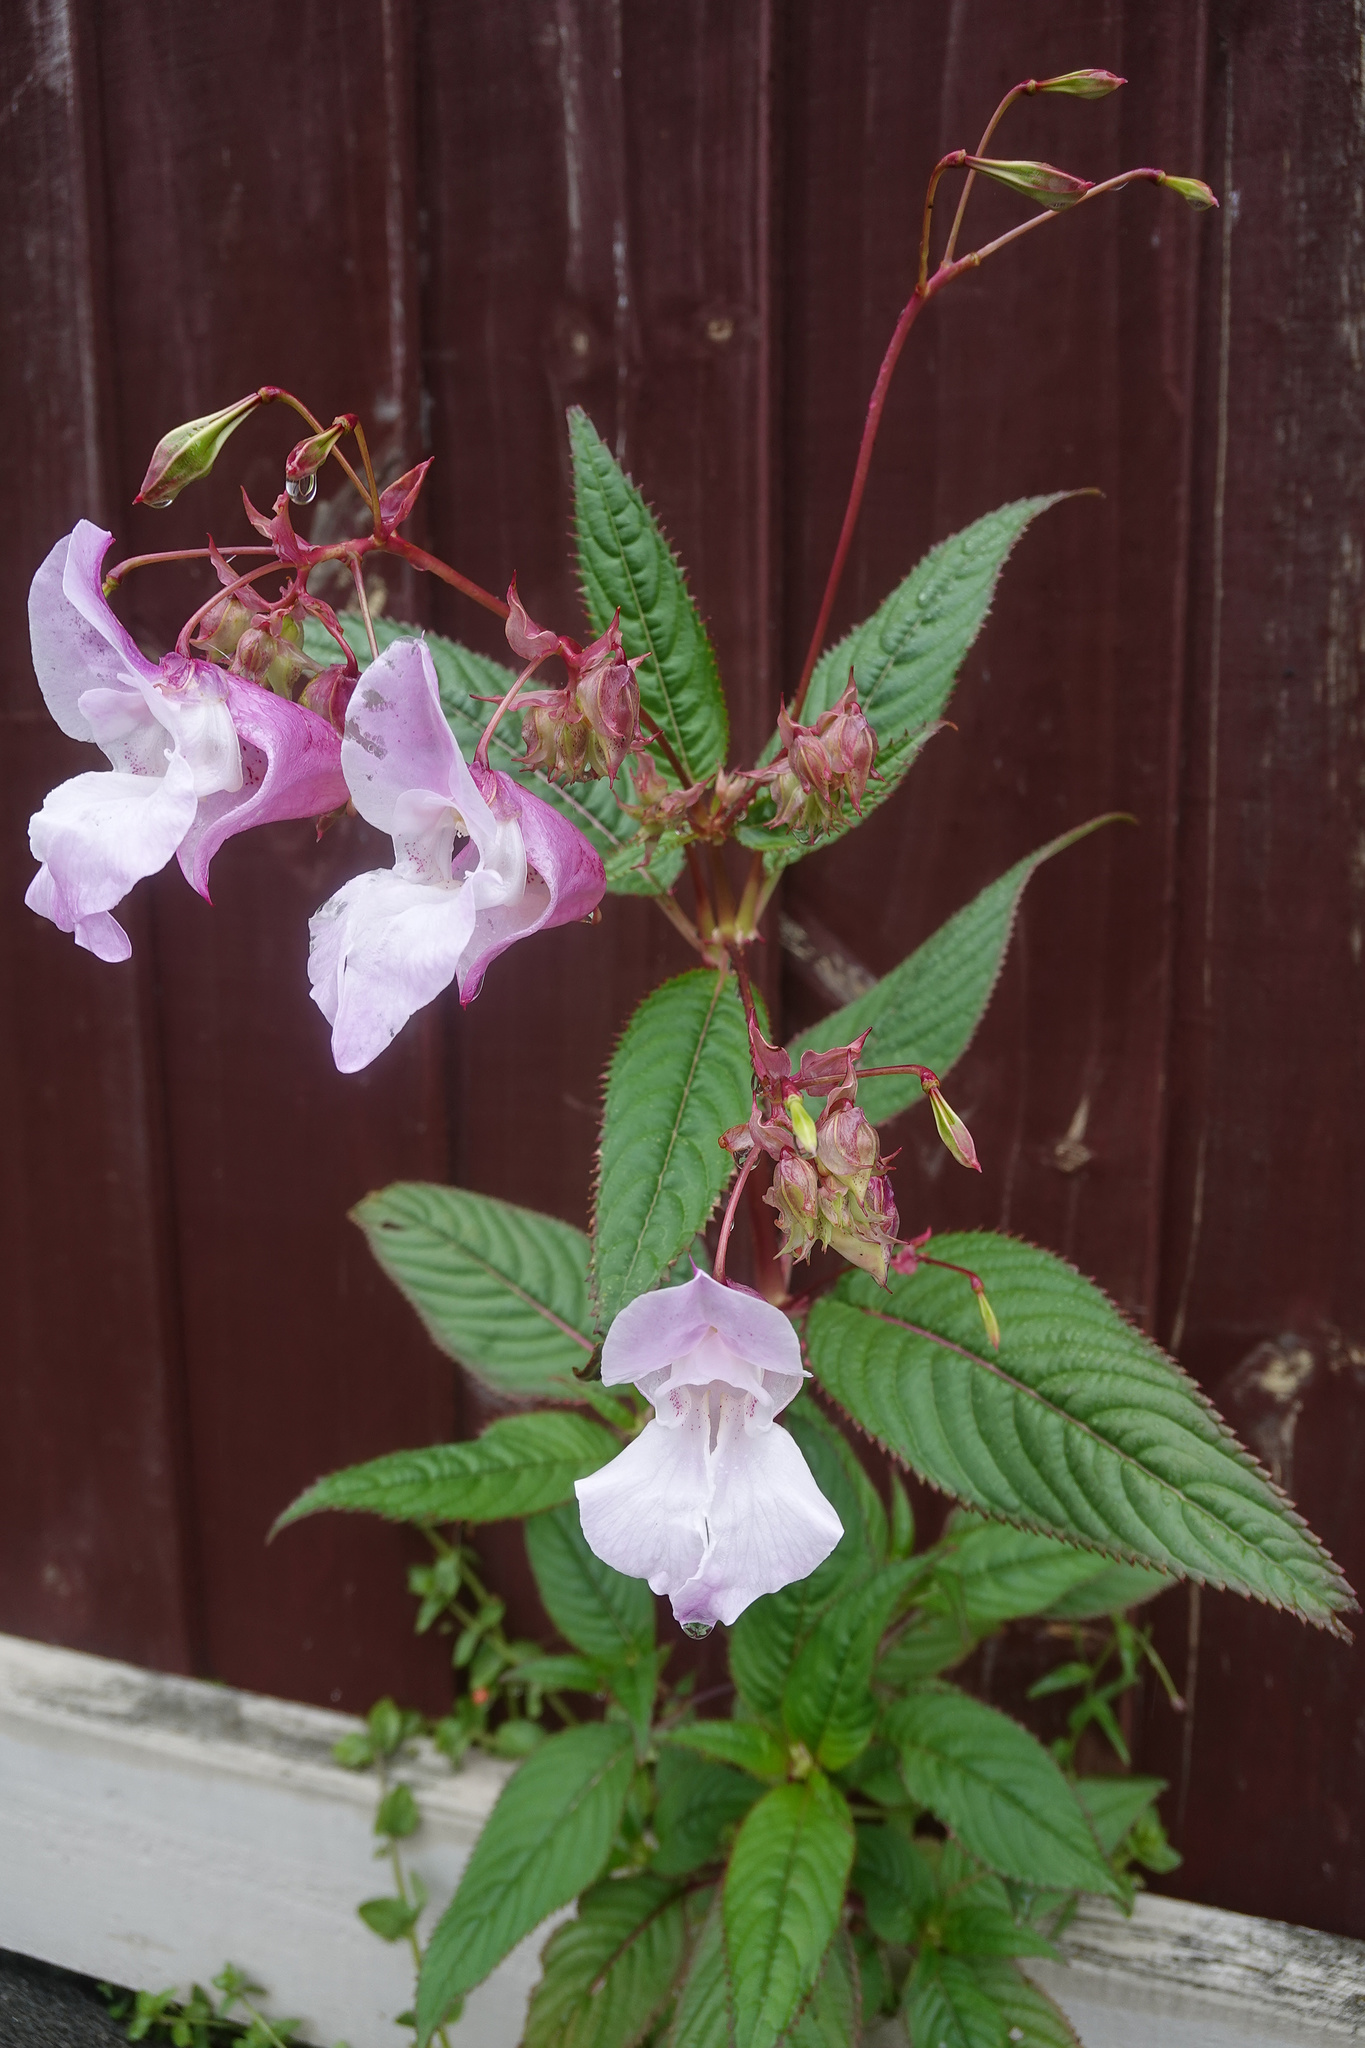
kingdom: Plantae
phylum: Tracheophyta
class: Magnoliopsida
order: Ericales
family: Balsaminaceae
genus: Impatiens
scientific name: Impatiens glandulifera
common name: Himalayan balsam
